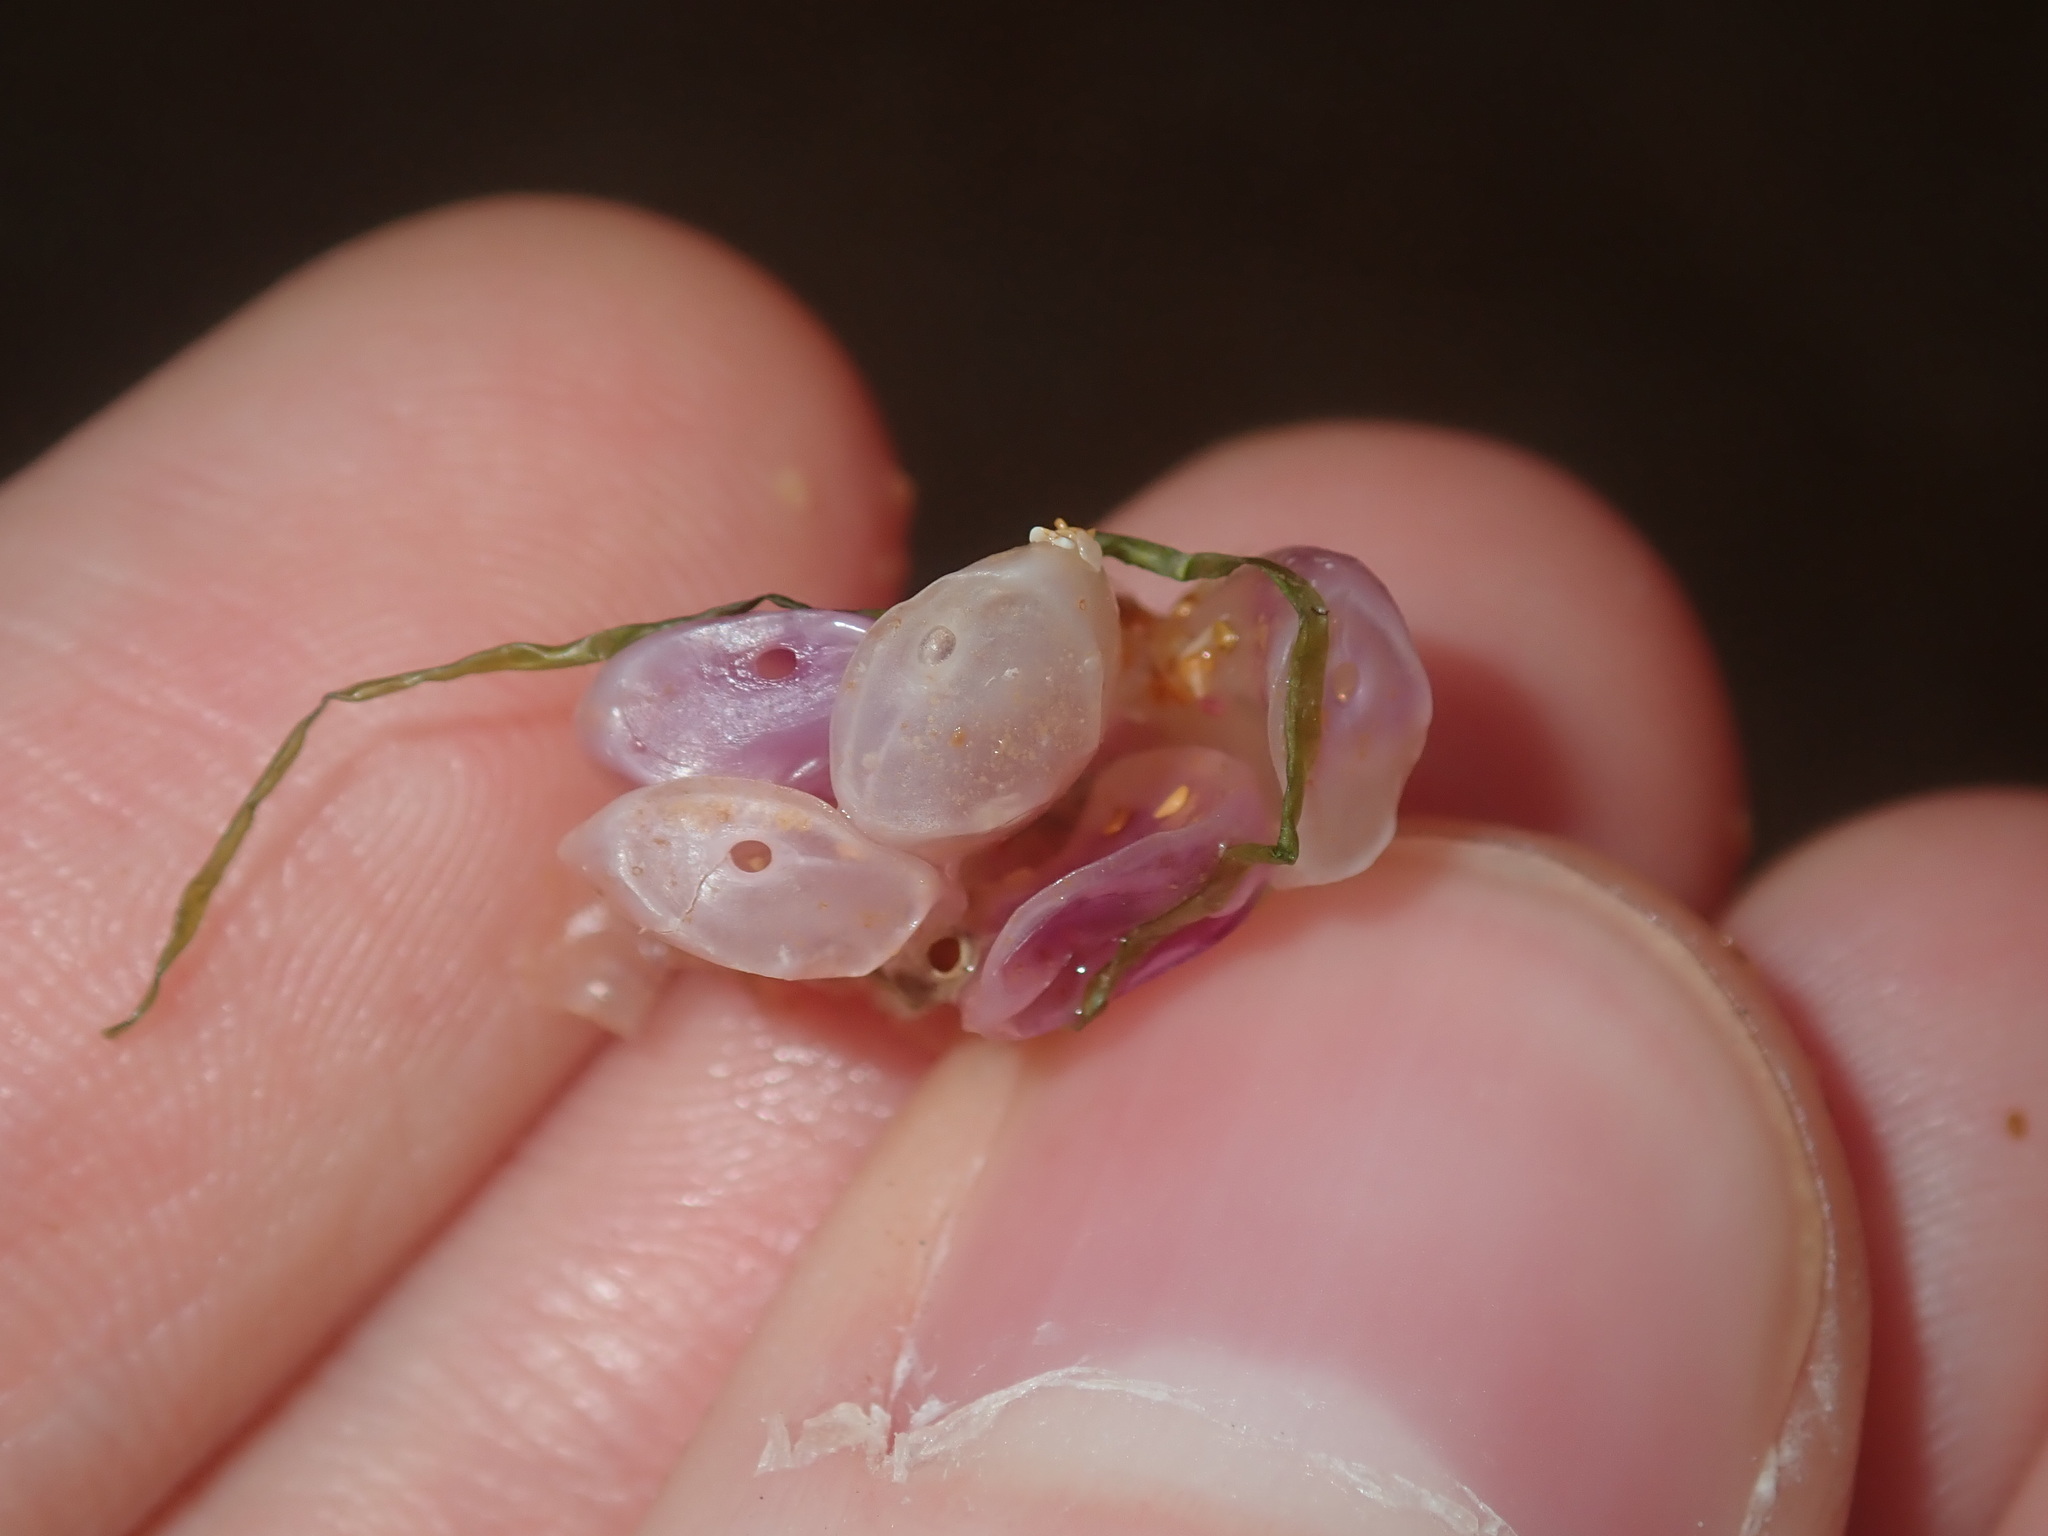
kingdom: Animalia
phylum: Mollusca
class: Gastropoda
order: Neogastropoda
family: Muricidae
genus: Dicathais
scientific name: Dicathais orbita
